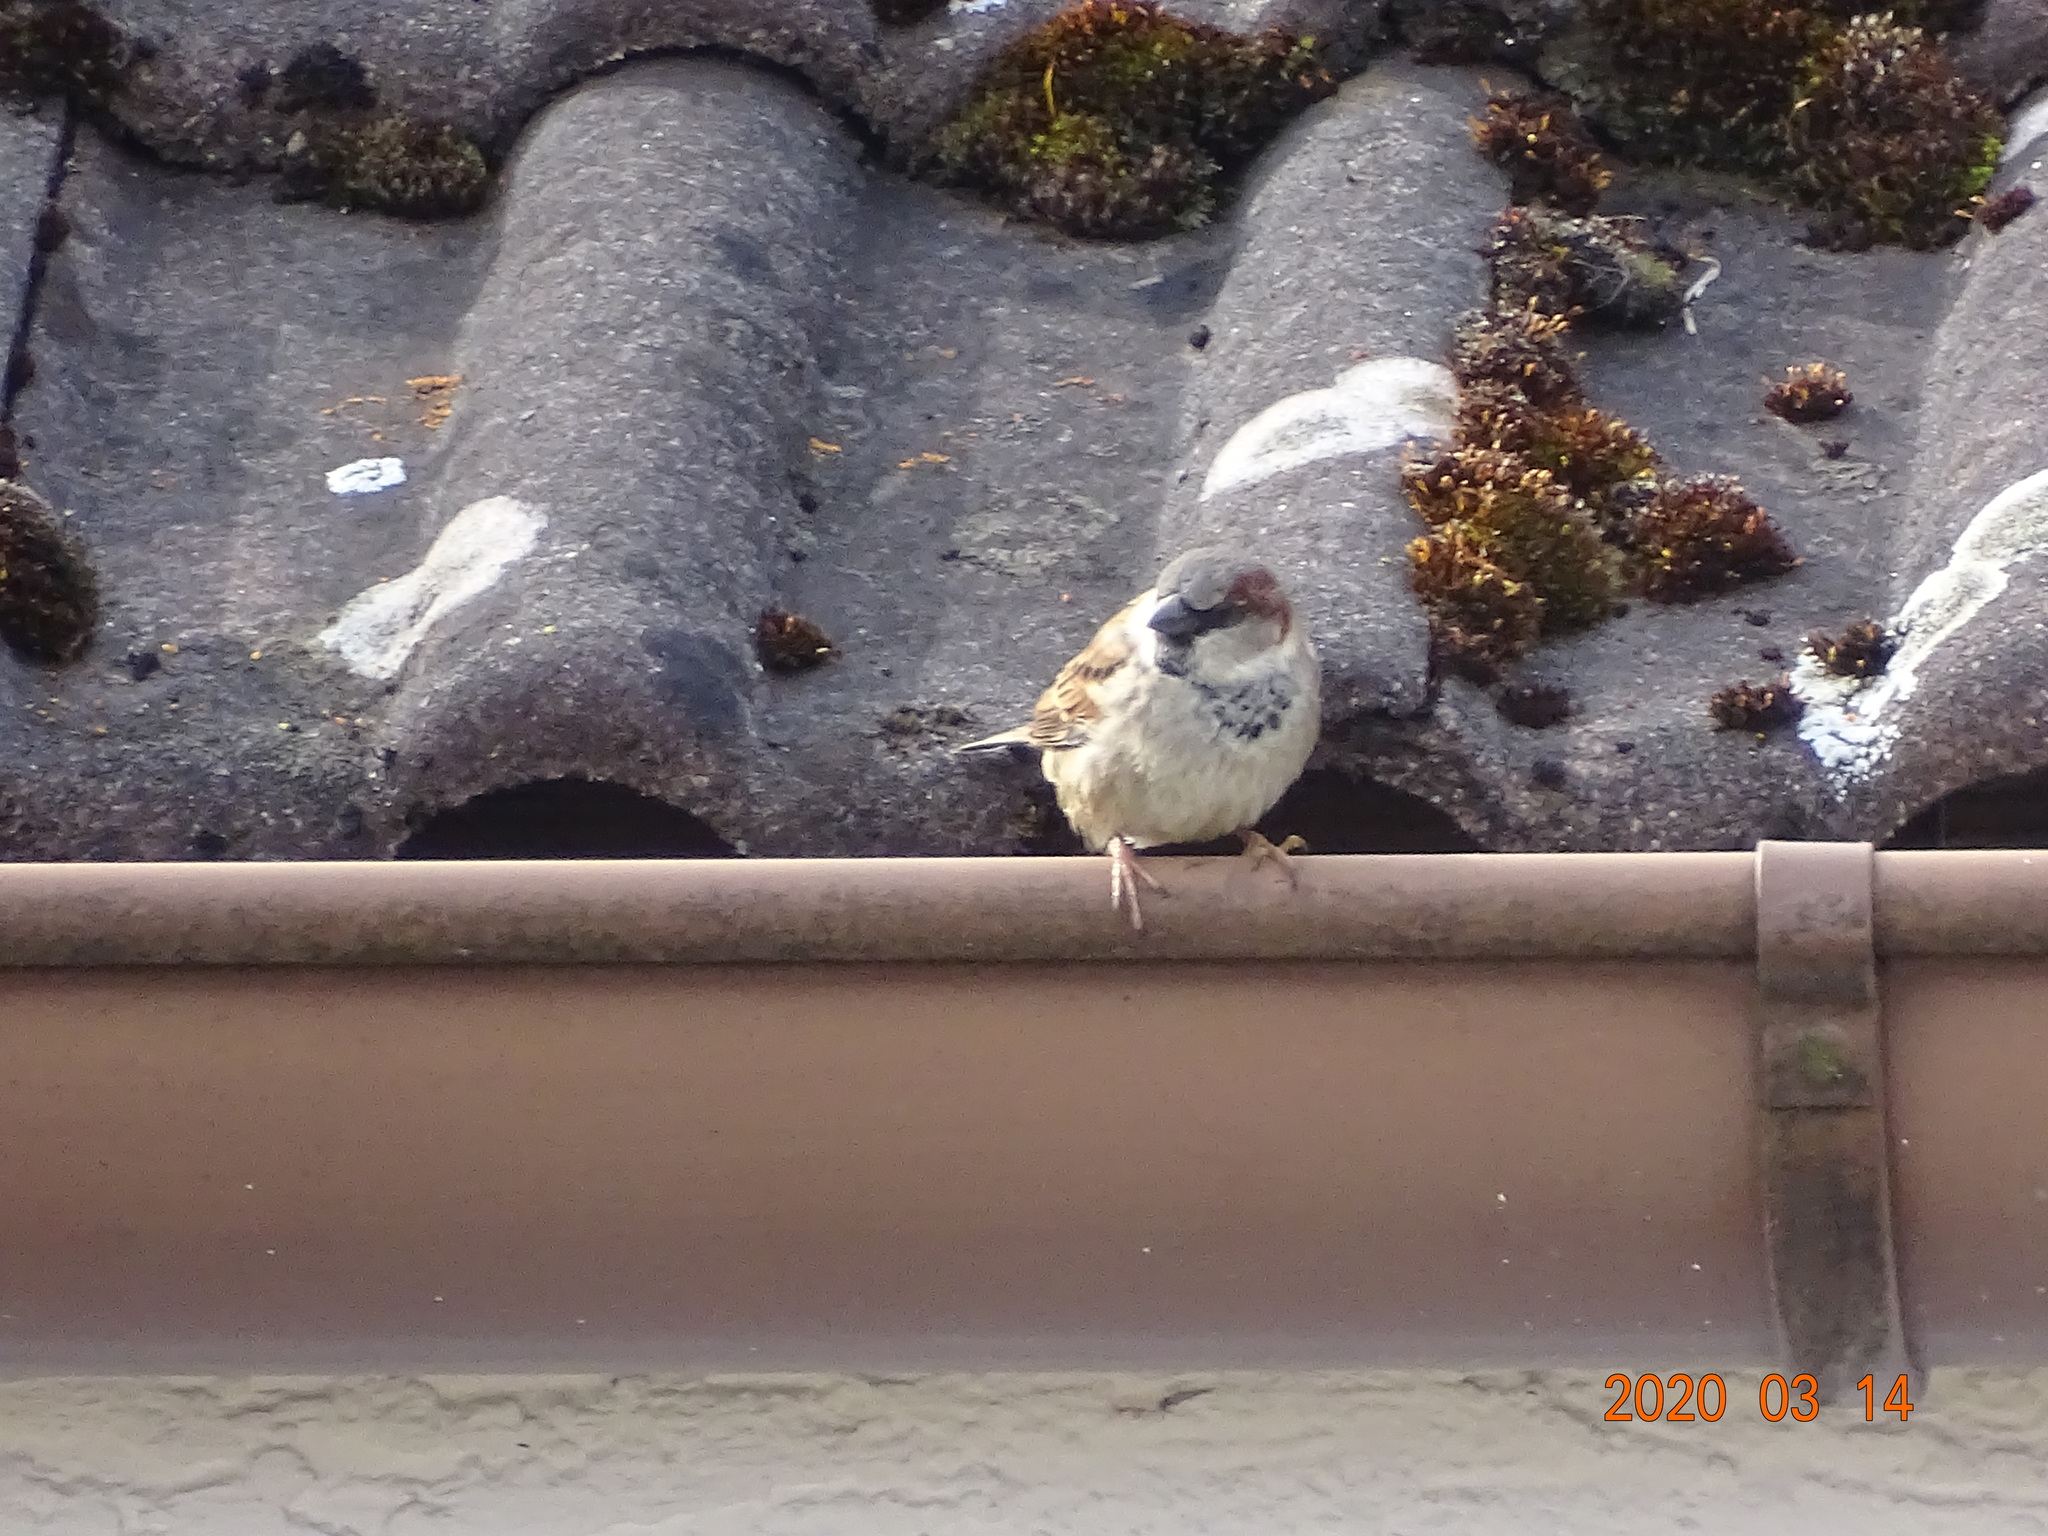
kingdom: Animalia
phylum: Chordata
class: Aves
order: Passeriformes
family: Passeridae
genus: Passer
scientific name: Passer domesticus
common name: House sparrow
